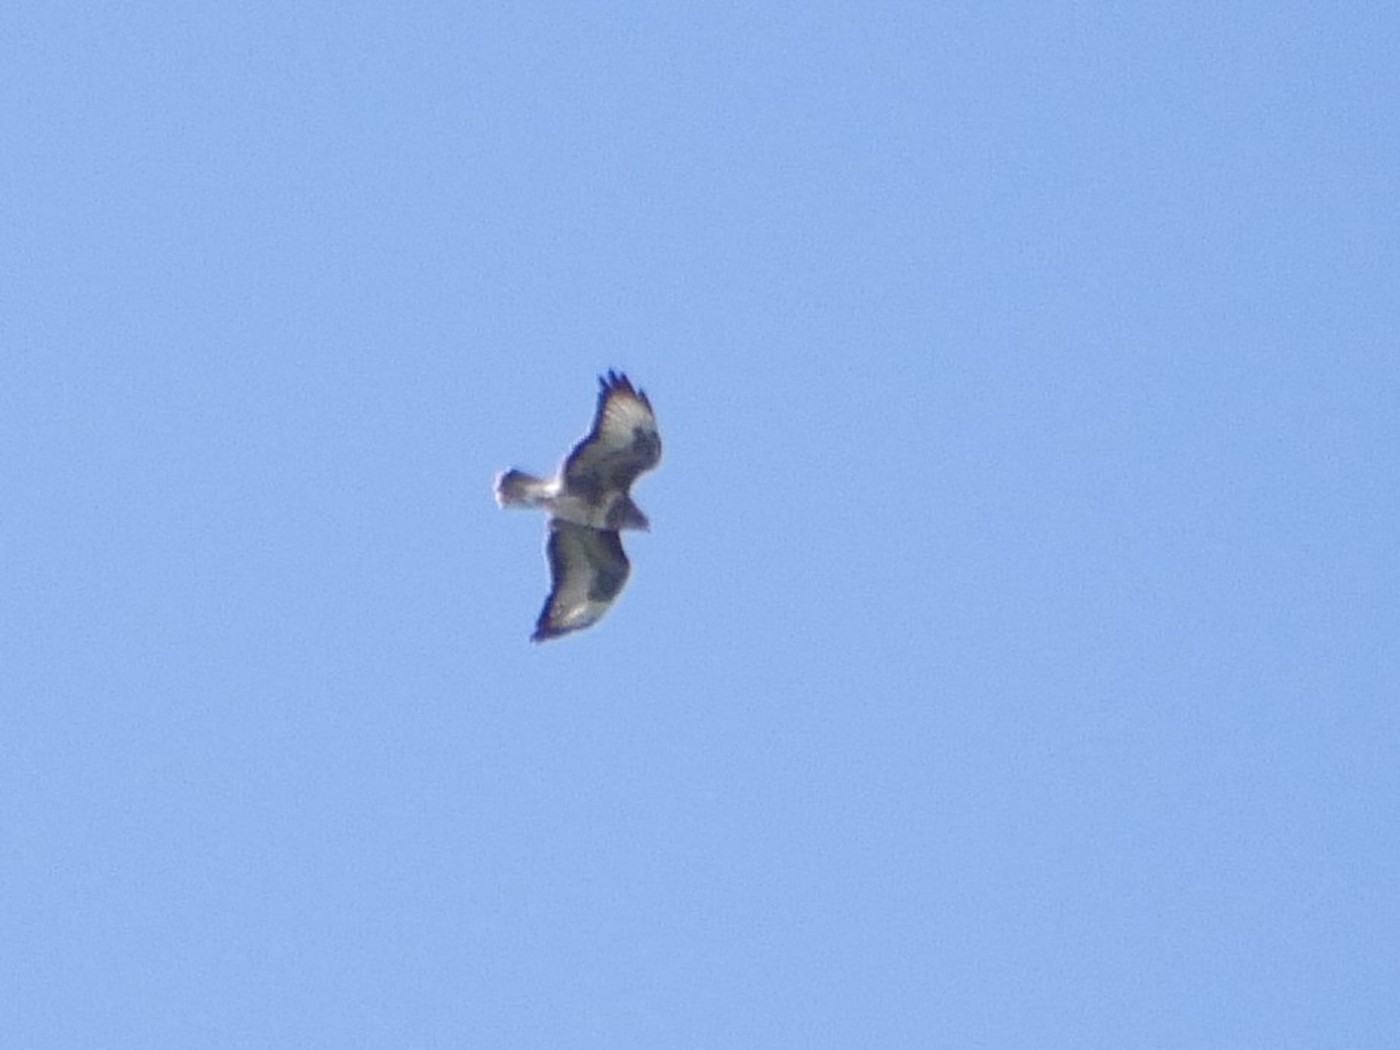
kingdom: Animalia
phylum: Chordata
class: Aves
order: Accipitriformes
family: Accipitridae
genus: Buteo
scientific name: Buteo buteo
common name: Common buzzard
